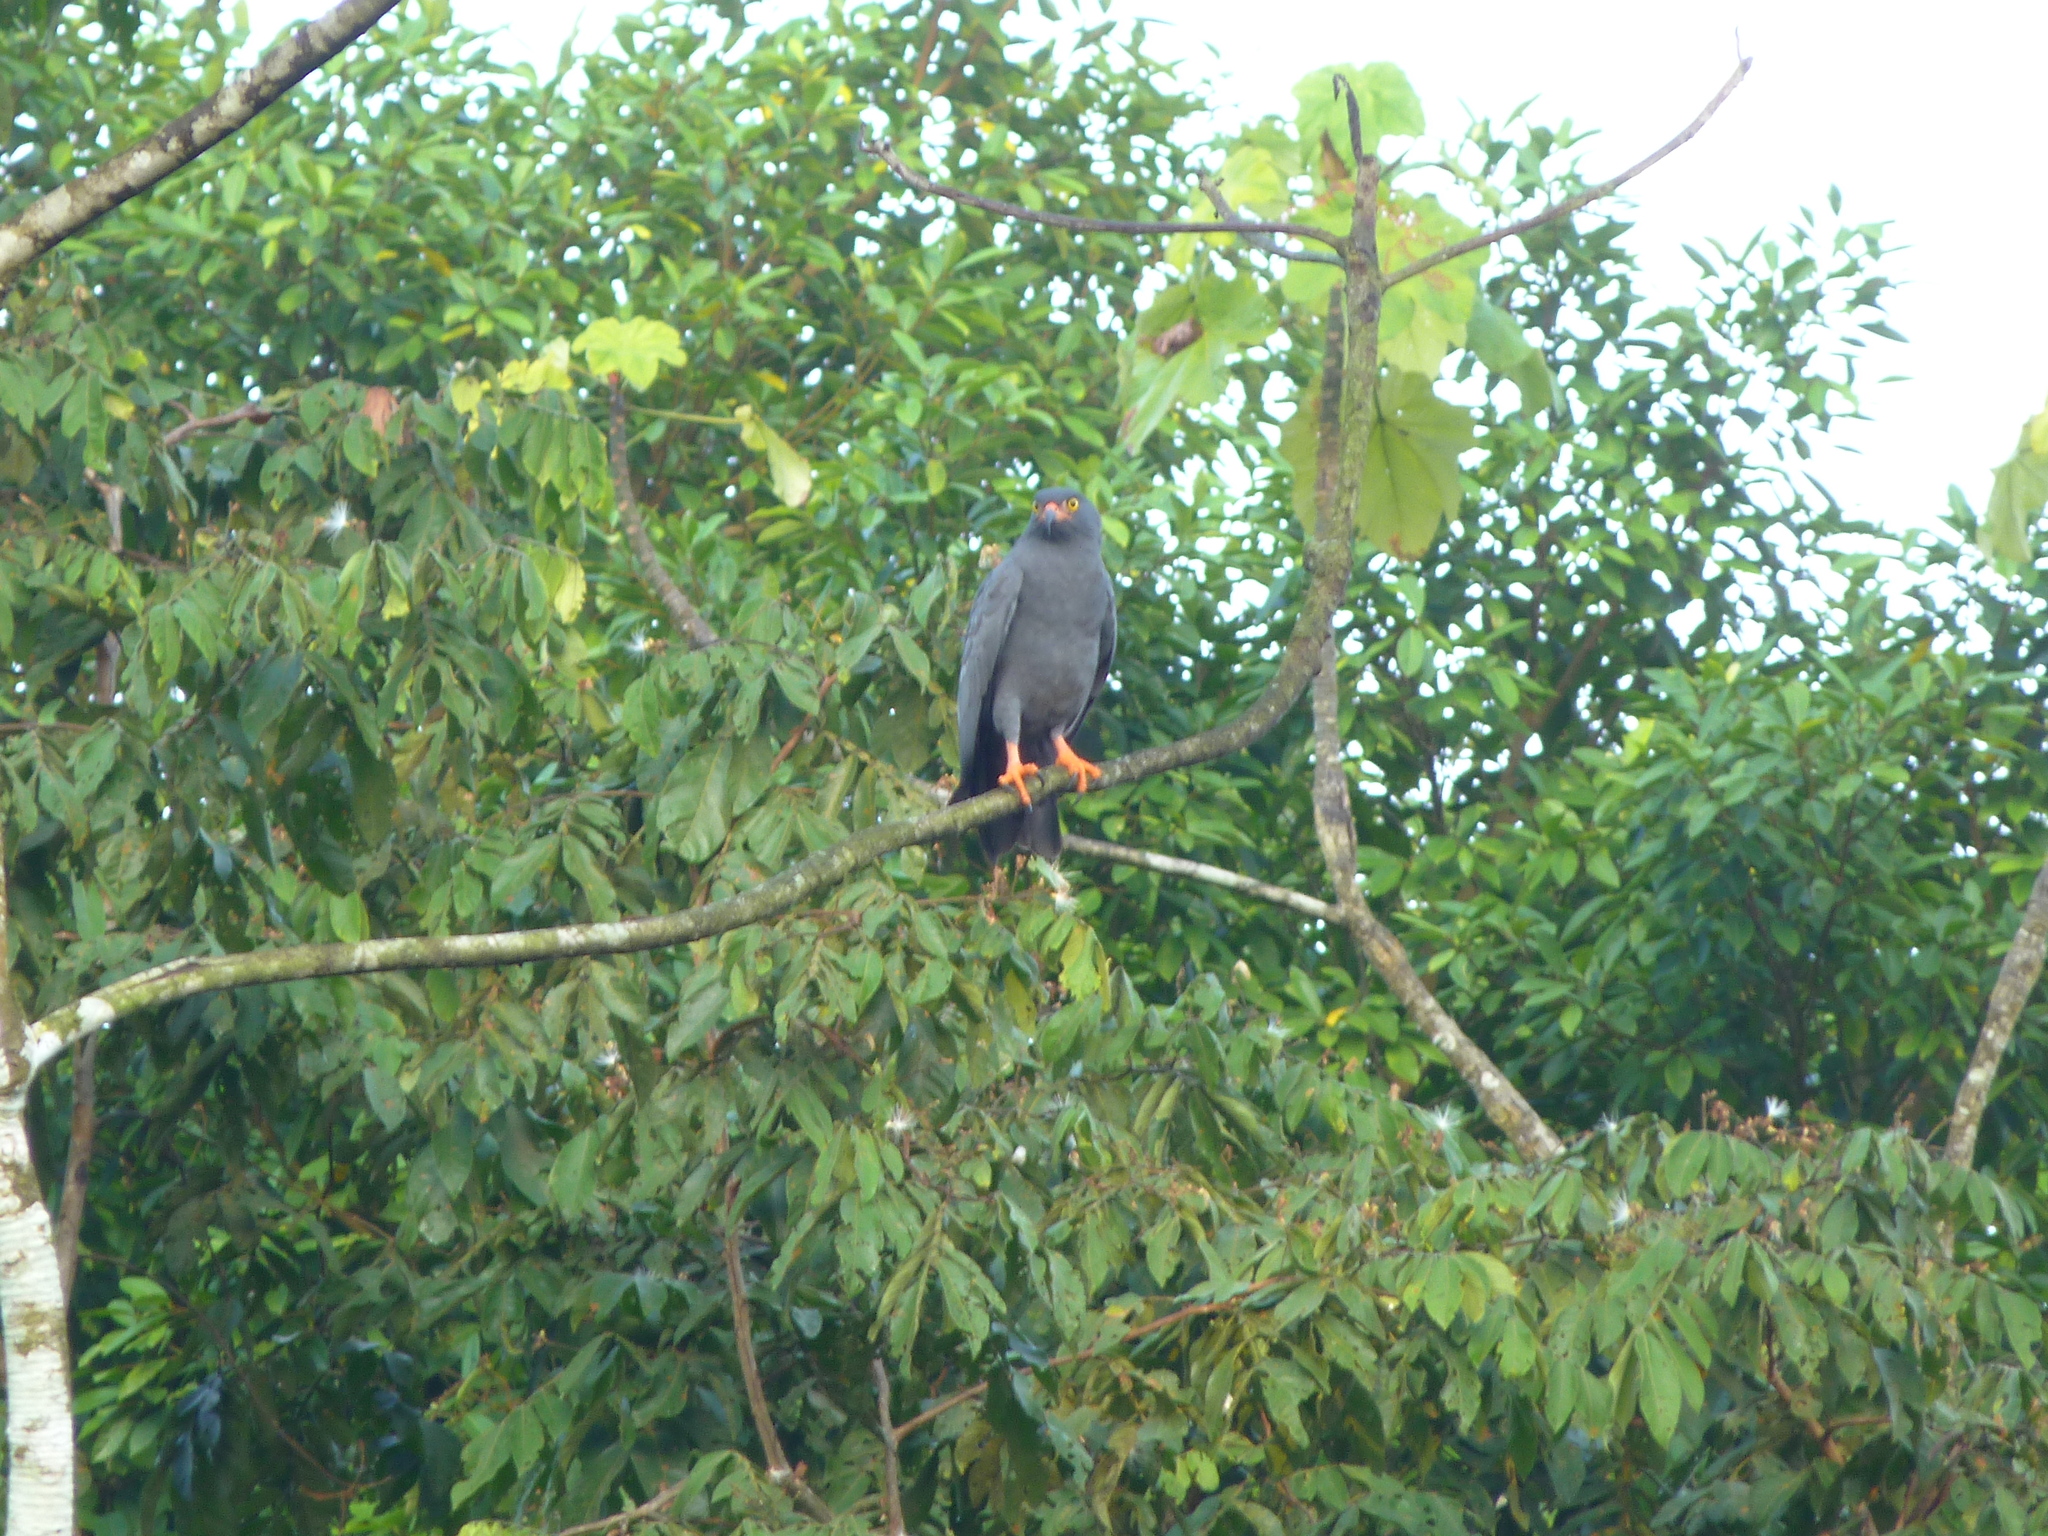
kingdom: Animalia
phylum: Chordata
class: Aves
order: Accipitriformes
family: Accipitridae
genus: Helicolestes
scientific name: Helicolestes hamatus
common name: Slender-billed kite
